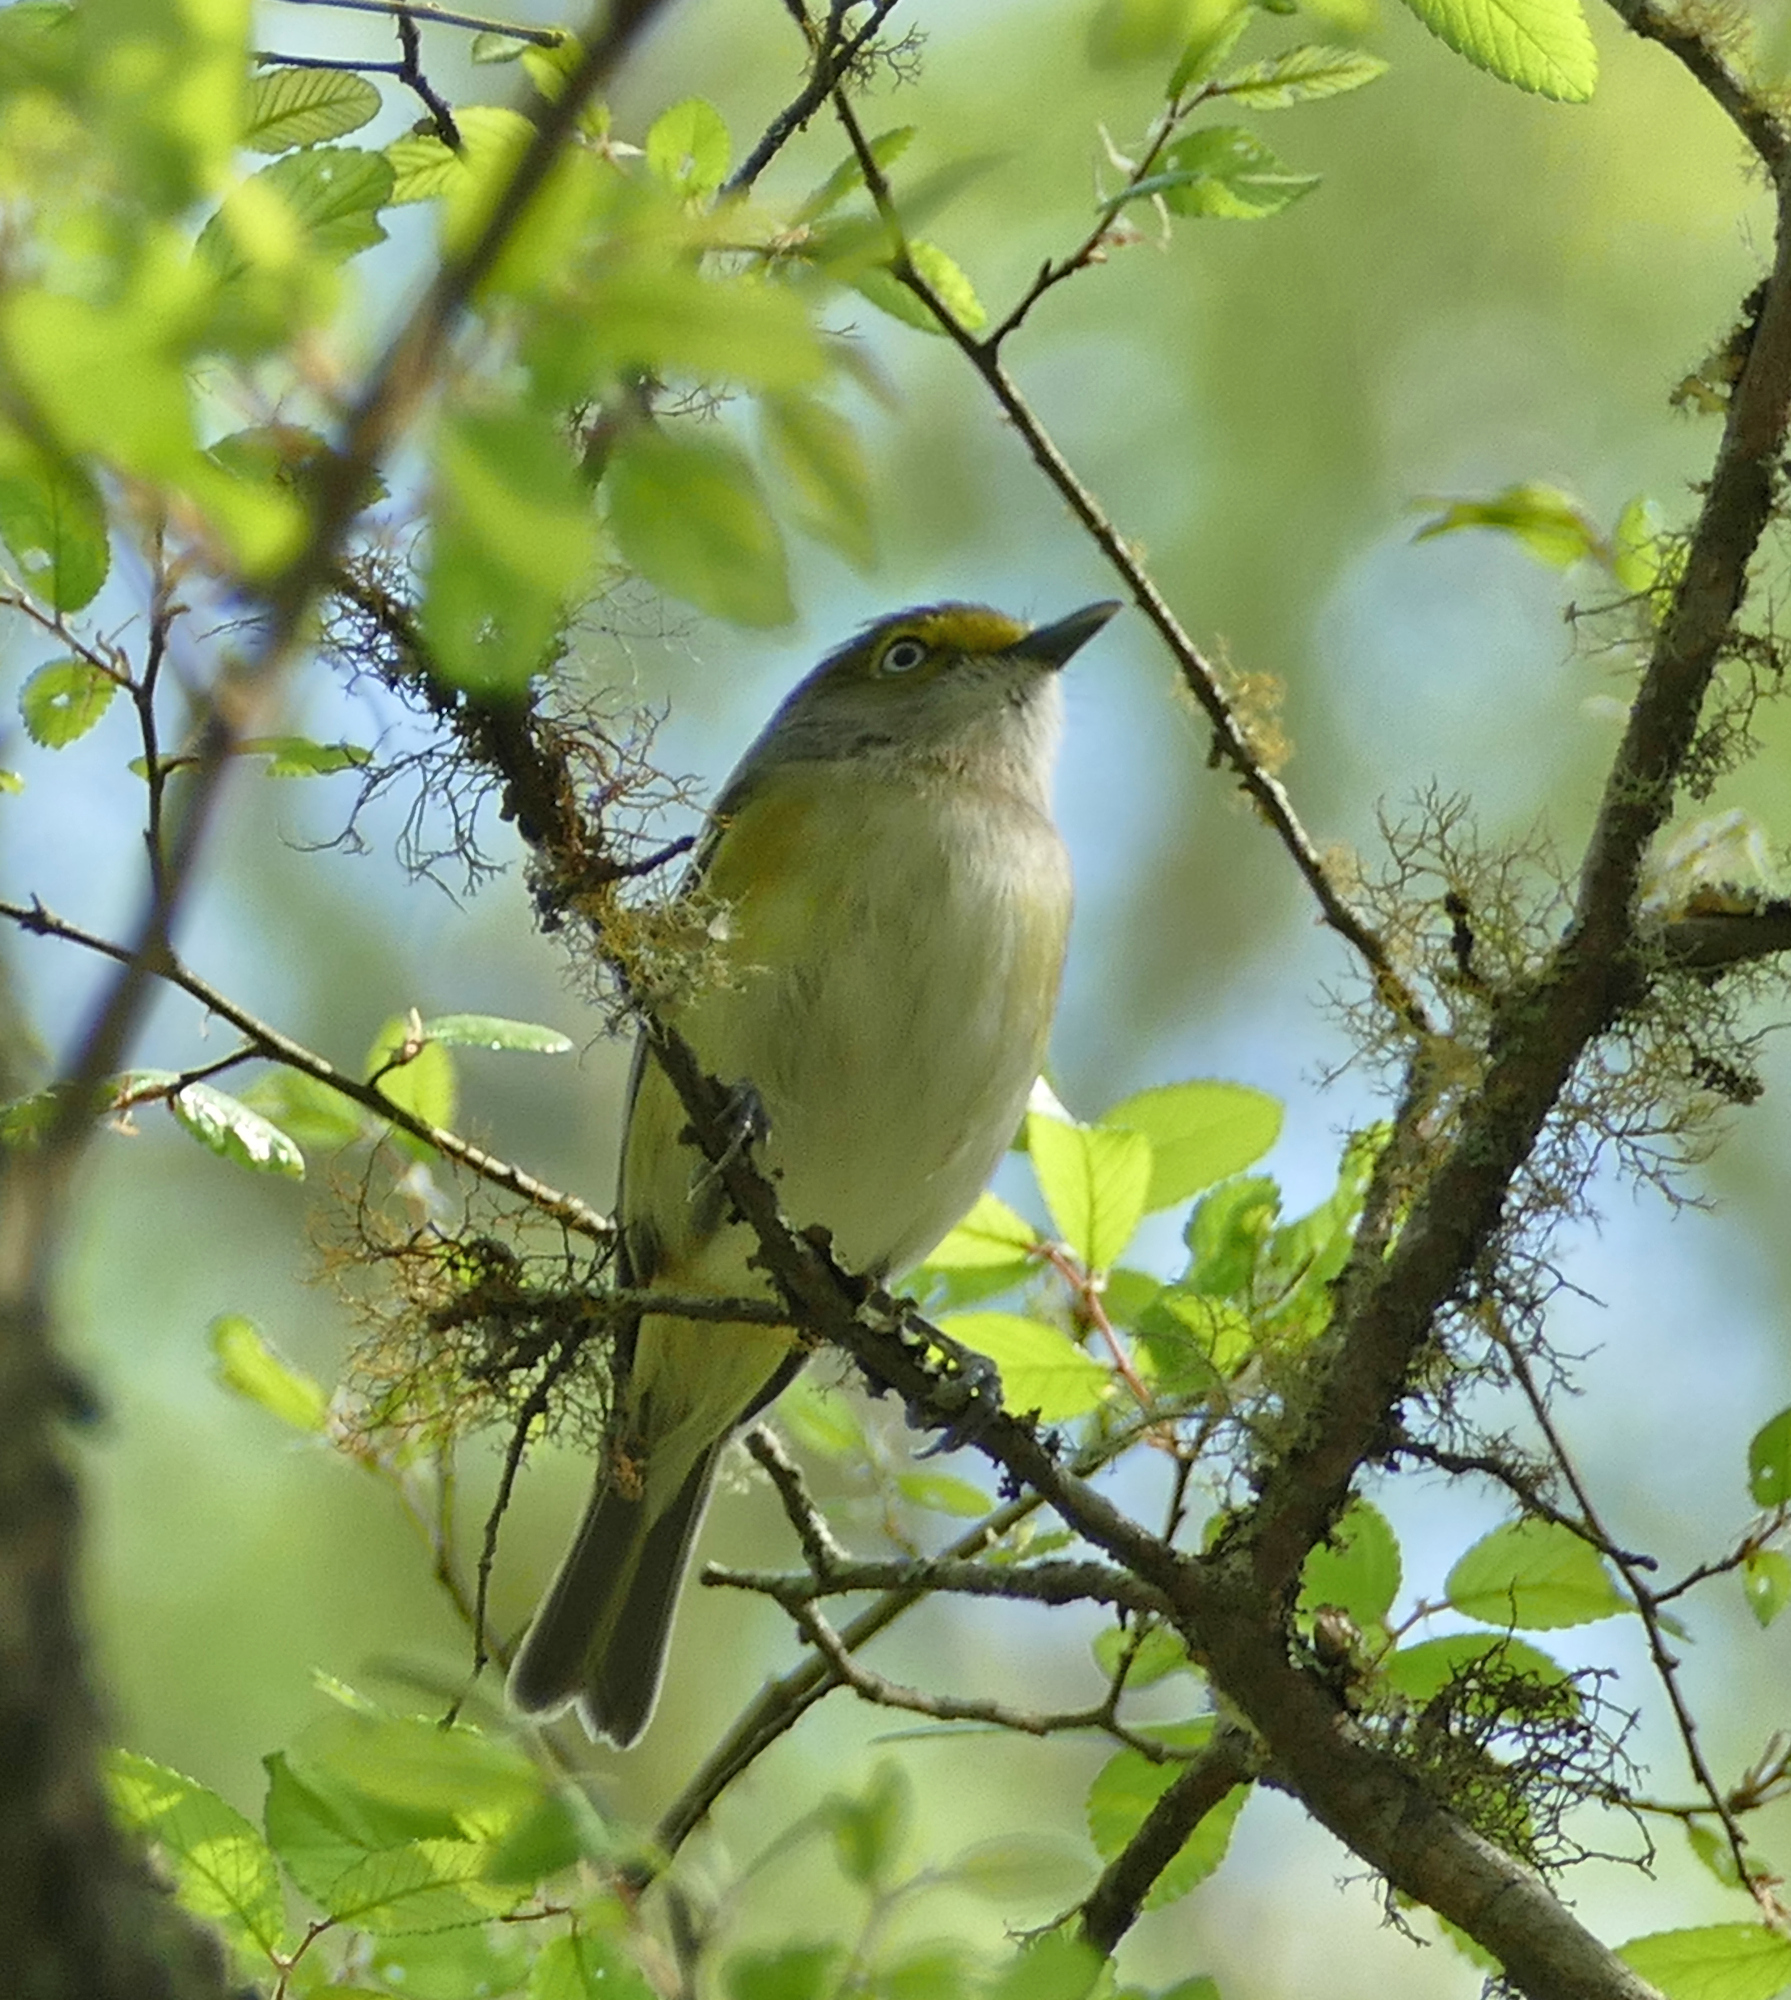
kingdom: Animalia
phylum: Chordata
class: Aves
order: Passeriformes
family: Vireonidae
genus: Vireo
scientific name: Vireo griseus
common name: White-eyed vireo
